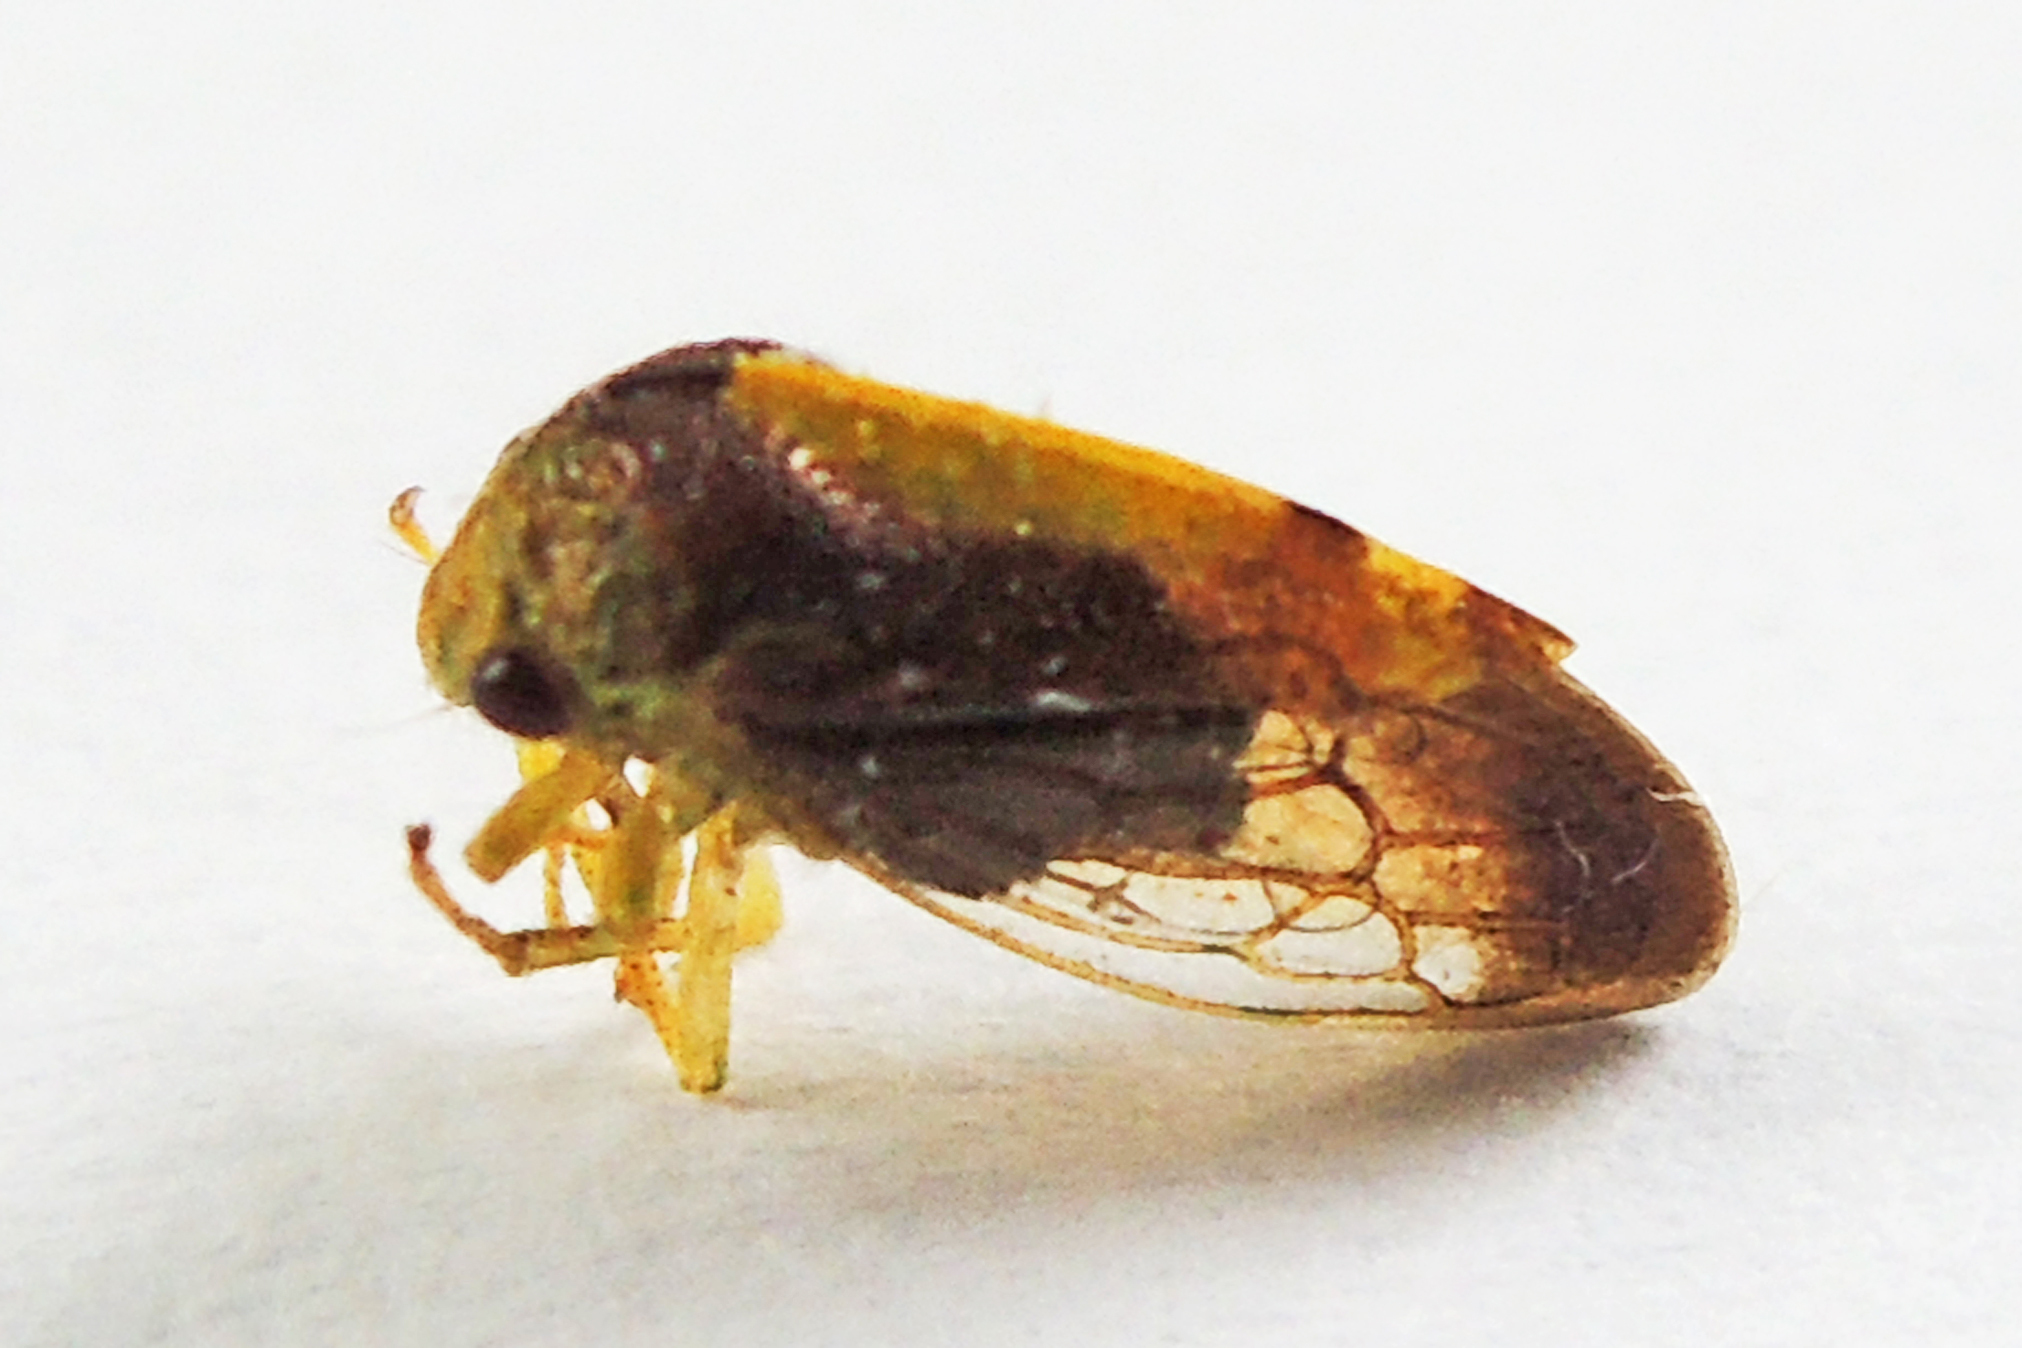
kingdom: Animalia
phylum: Arthropoda
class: Insecta
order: Hemiptera
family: Membracidae
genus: Atymna
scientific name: Atymna querci
